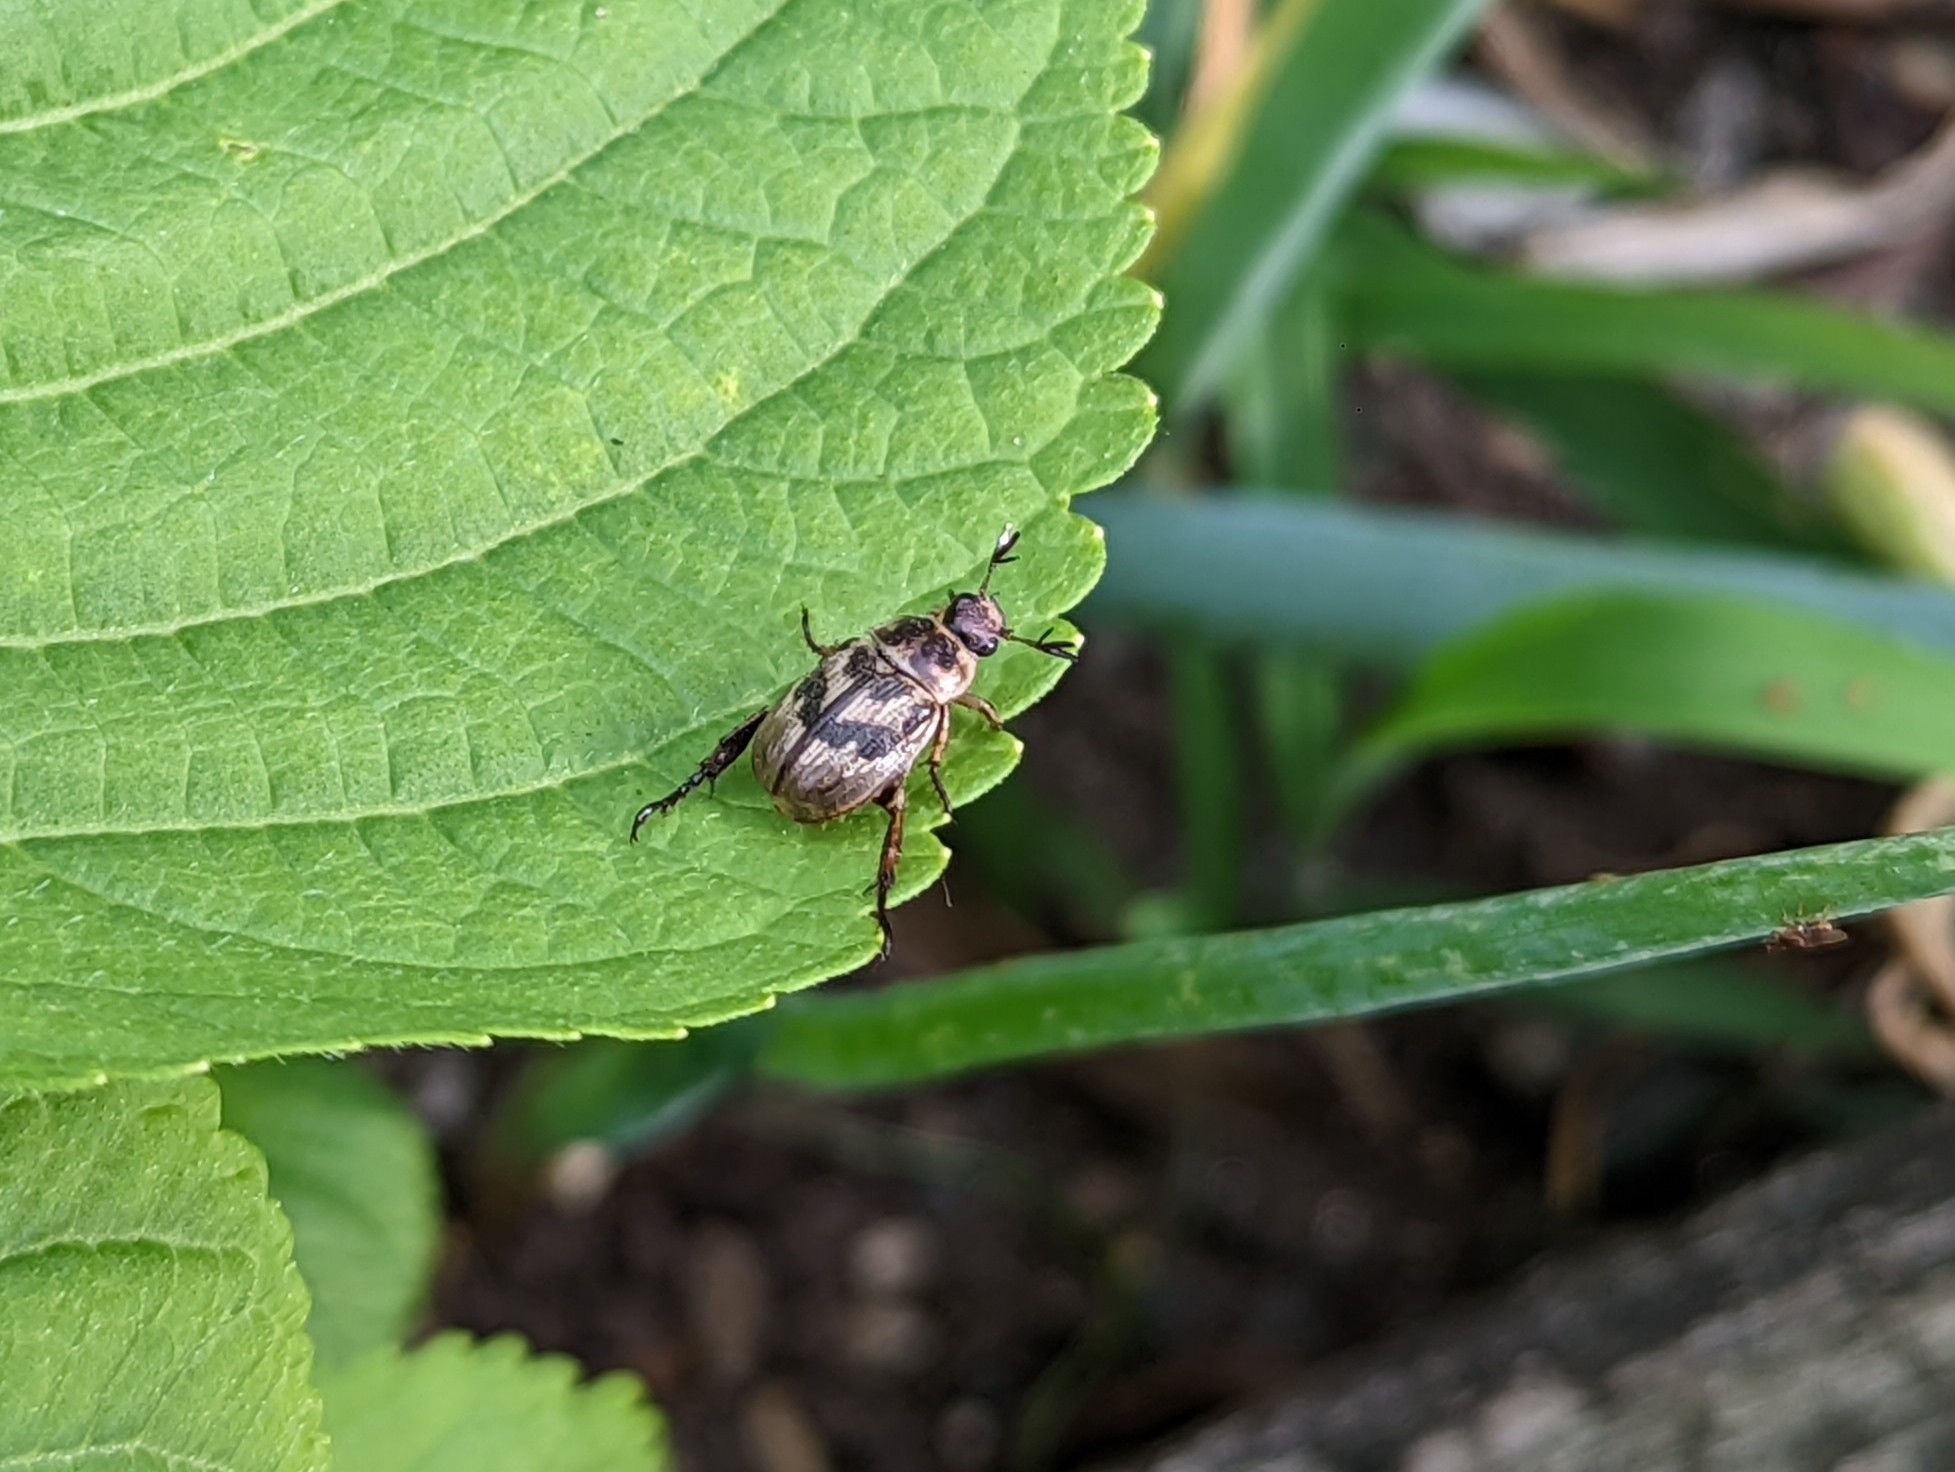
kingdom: Animalia
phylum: Arthropoda
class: Insecta
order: Coleoptera
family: Scarabaeidae
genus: Exomala
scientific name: Exomala orientalis
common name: Oriental beetle
